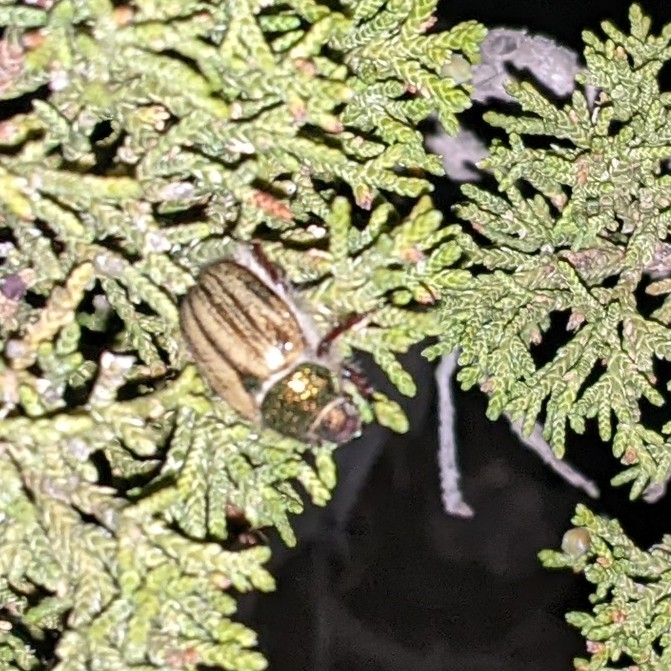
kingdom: Animalia
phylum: Arthropoda
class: Insecta
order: Coleoptera
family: Scarabaeidae
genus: Paracotalpa
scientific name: Paracotalpa puncticollis
